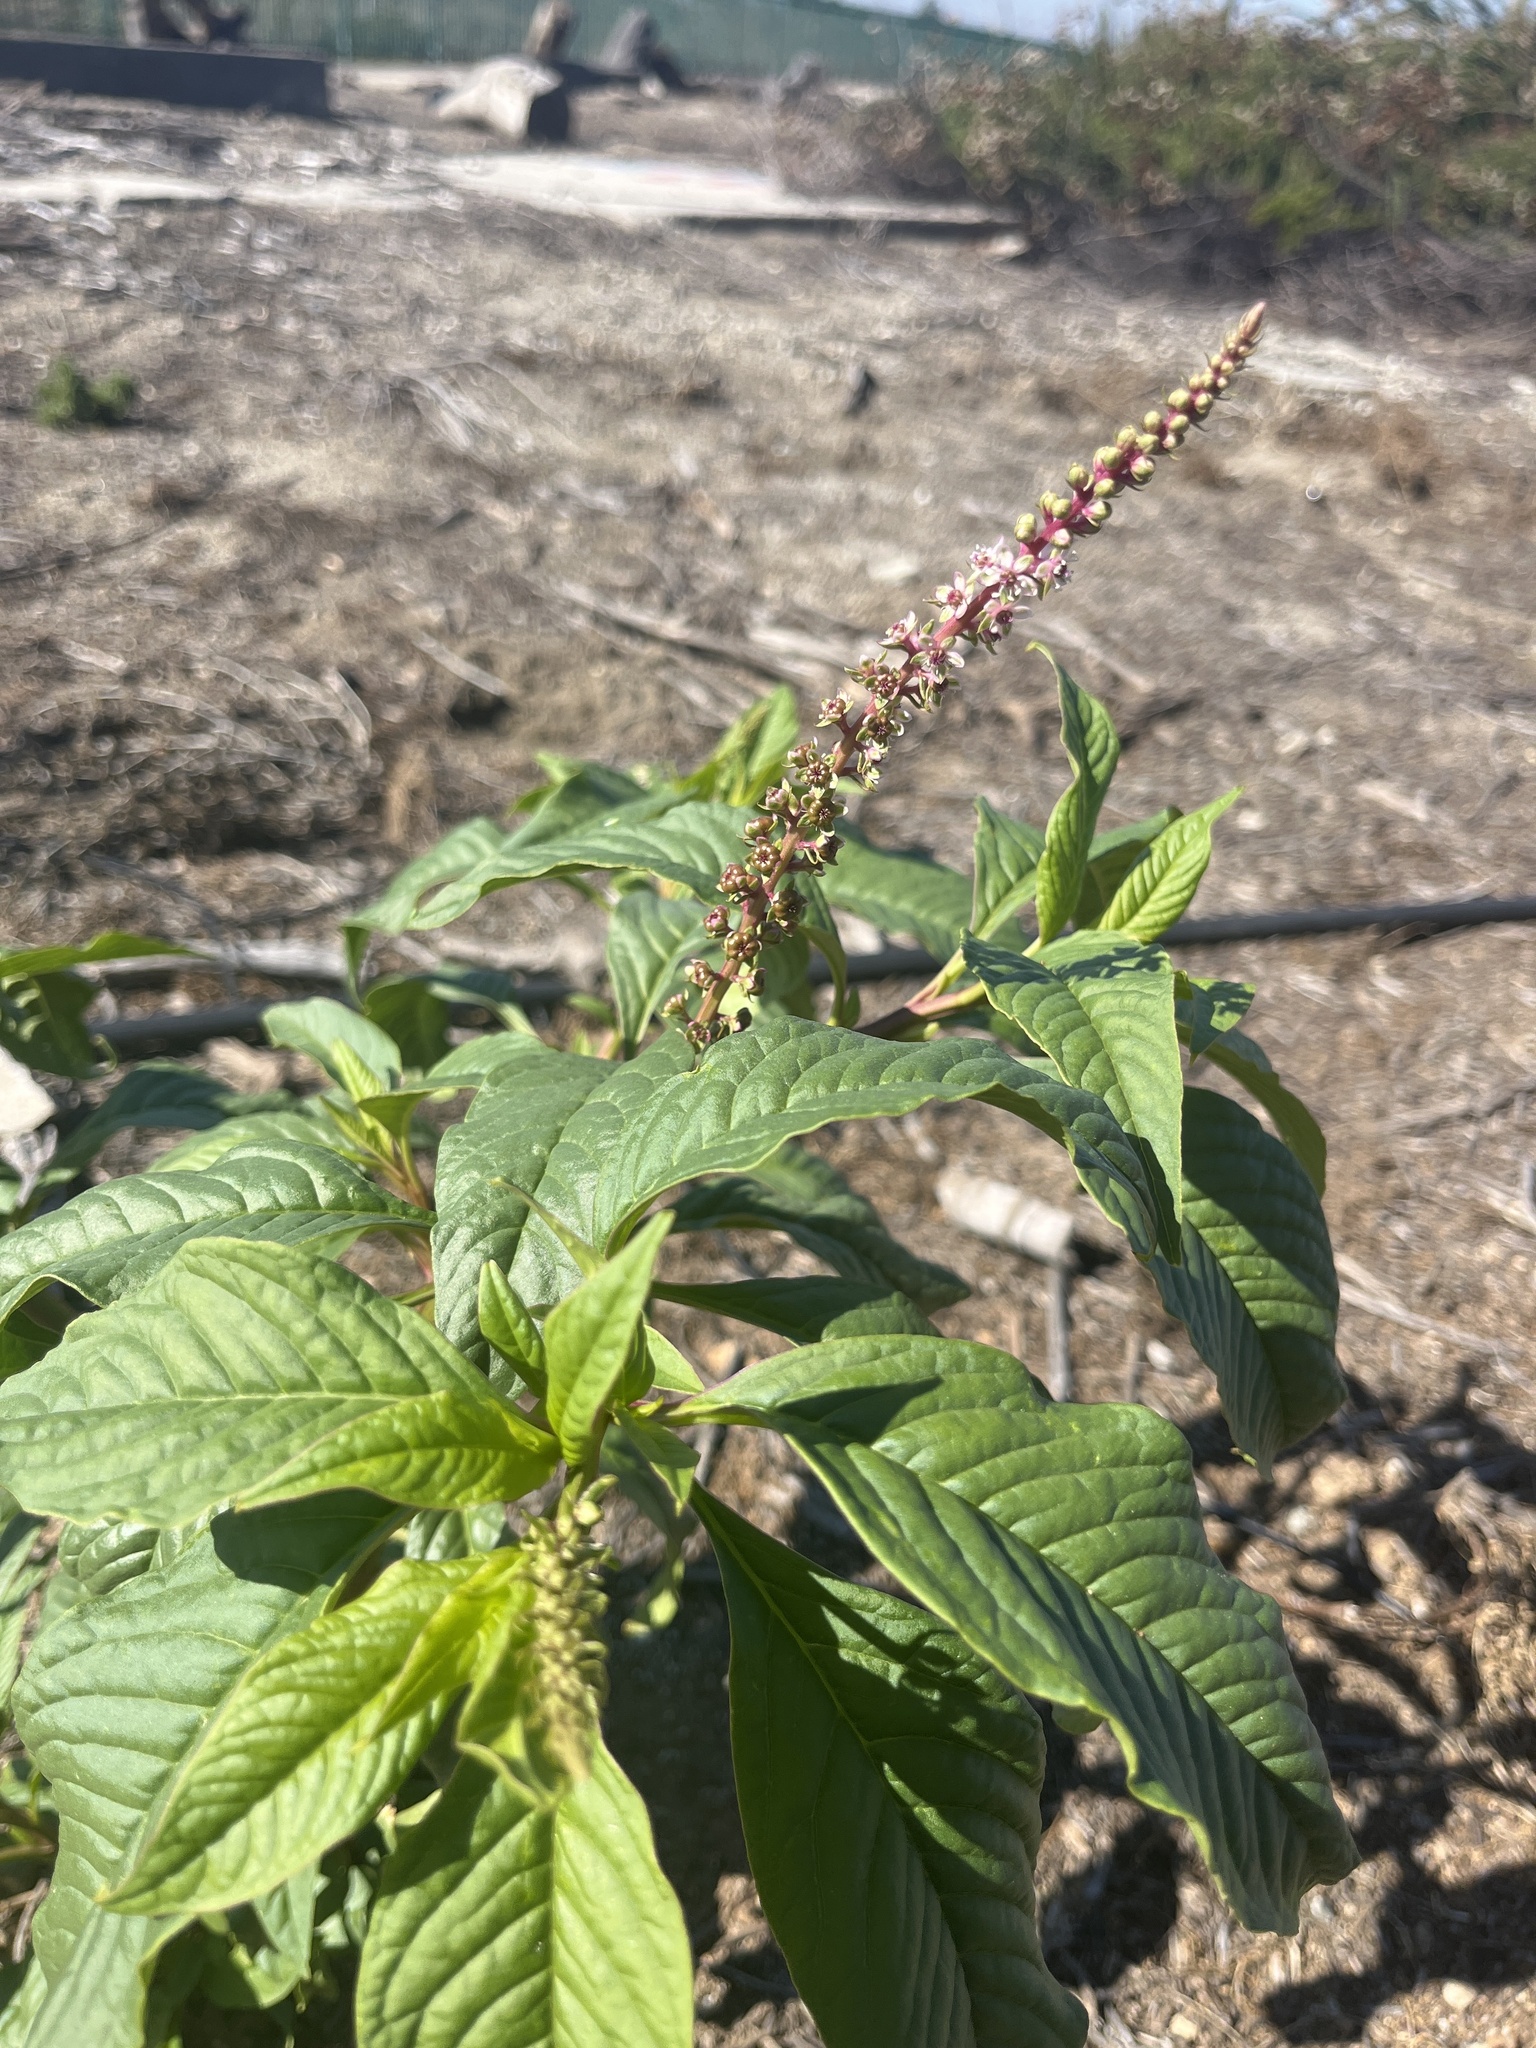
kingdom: Plantae
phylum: Tracheophyta
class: Magnoliopsida
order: Caryophyllales
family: Phytolaccaceae
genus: Phytolacca
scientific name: Phytolacca icosandra
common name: Button pokeweed
